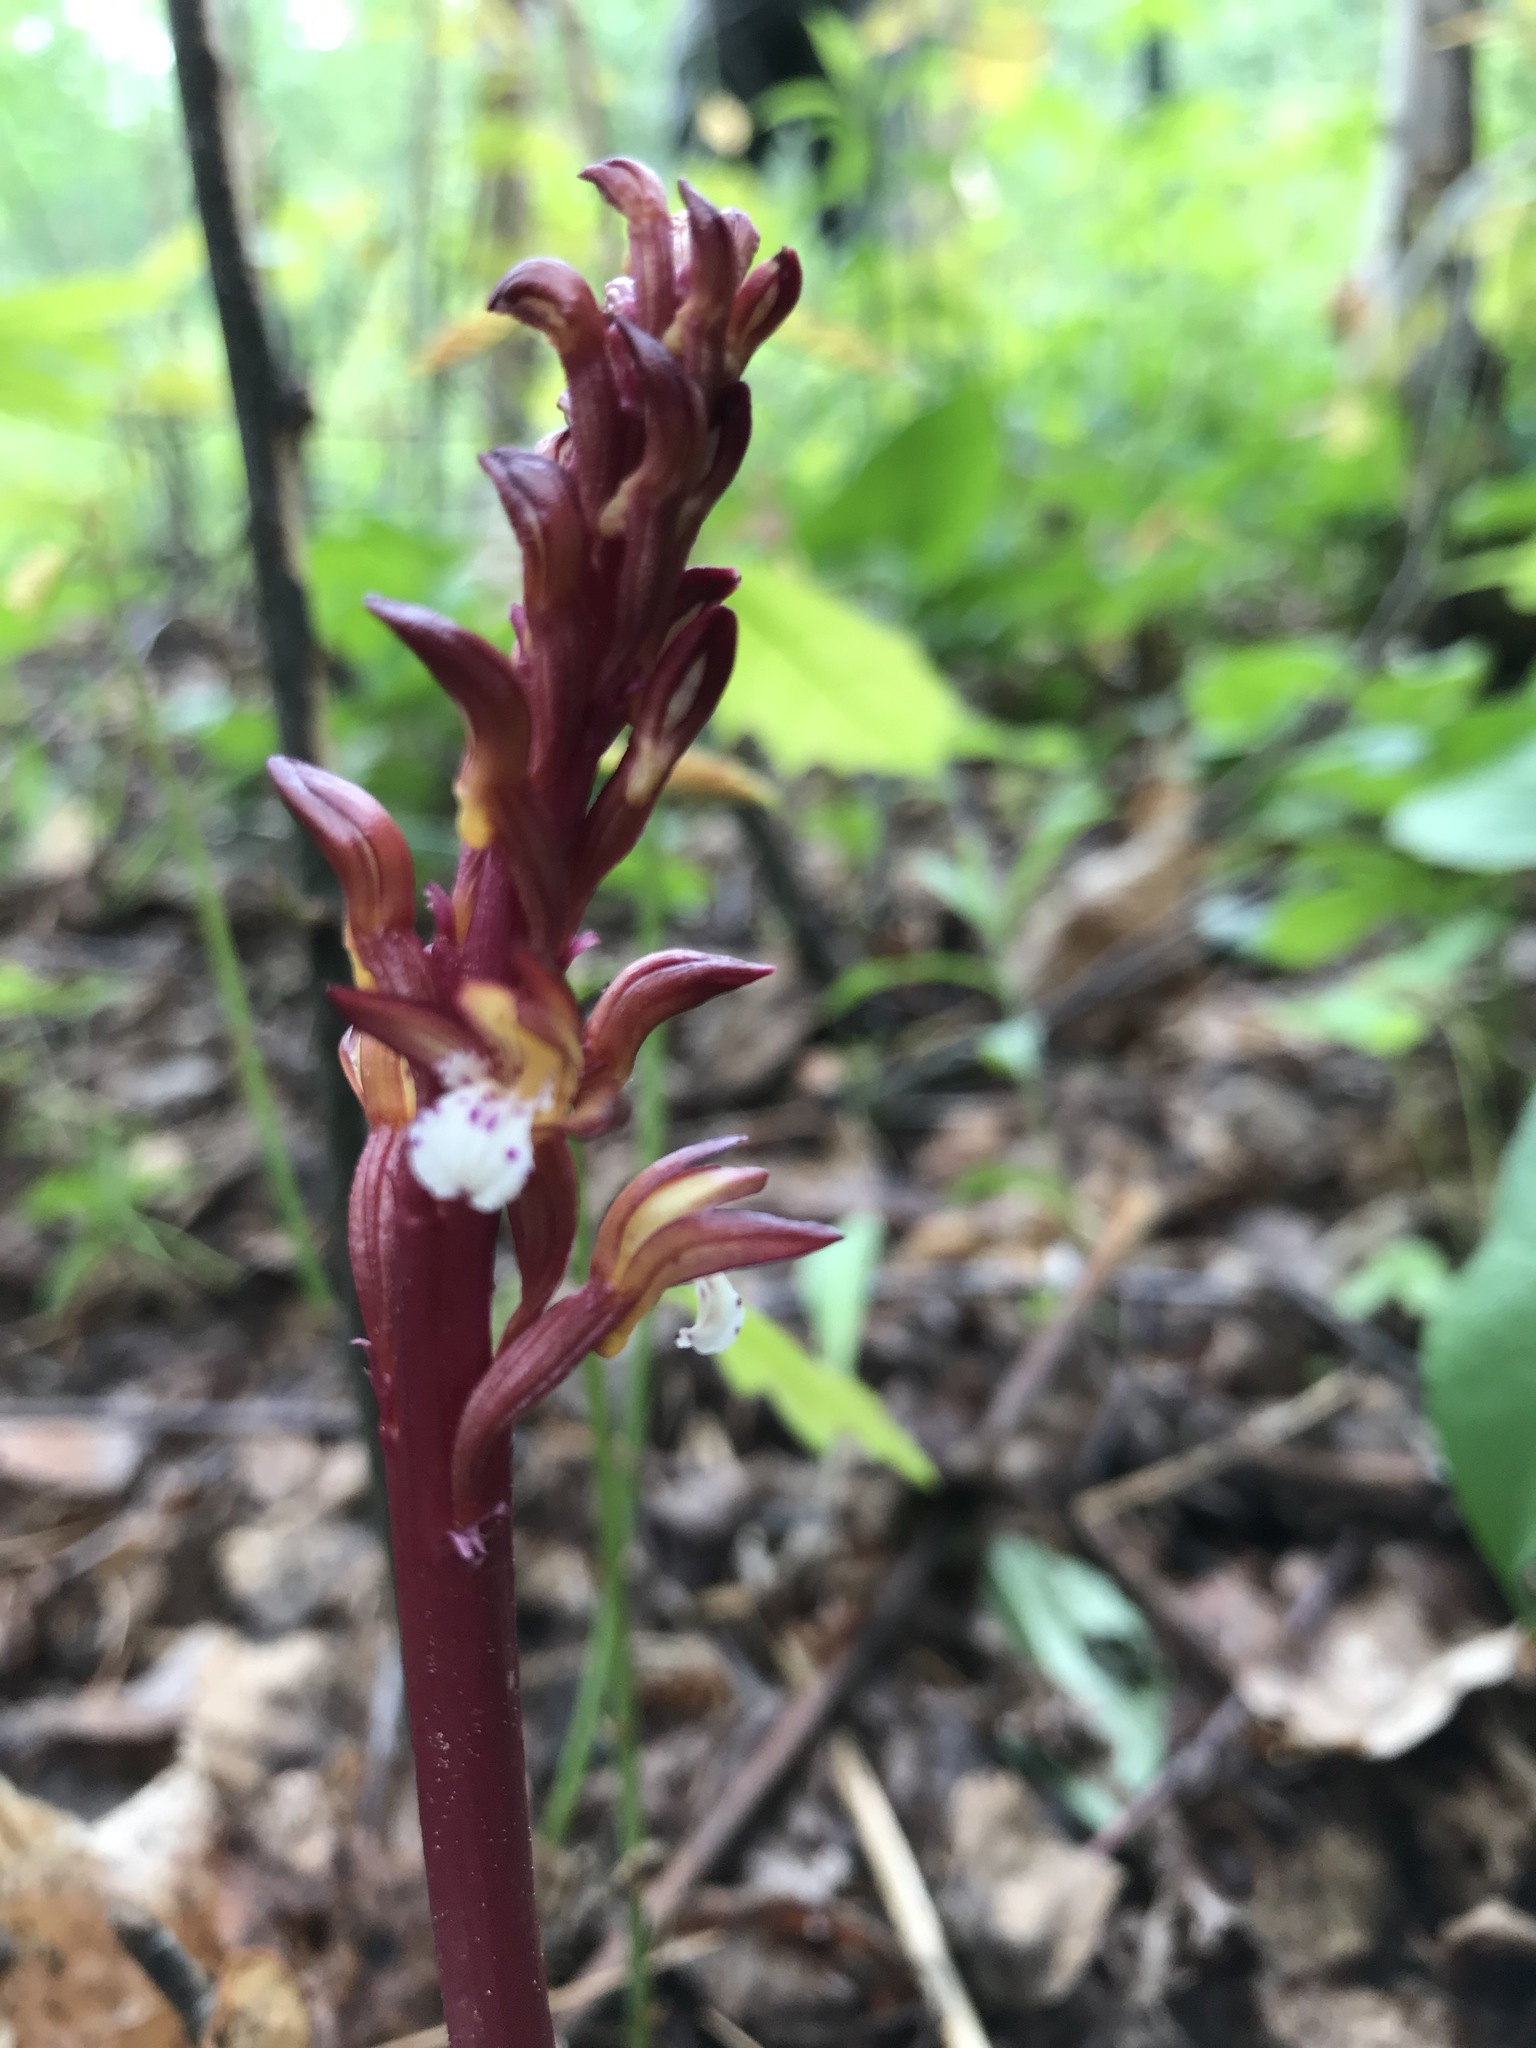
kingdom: Plantae
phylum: Tracheophyta
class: Liliopsida
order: Asparagales
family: Orchidaceae
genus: Corallorhiza
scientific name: Corallorhiza maculata
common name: Spotted coralroot
